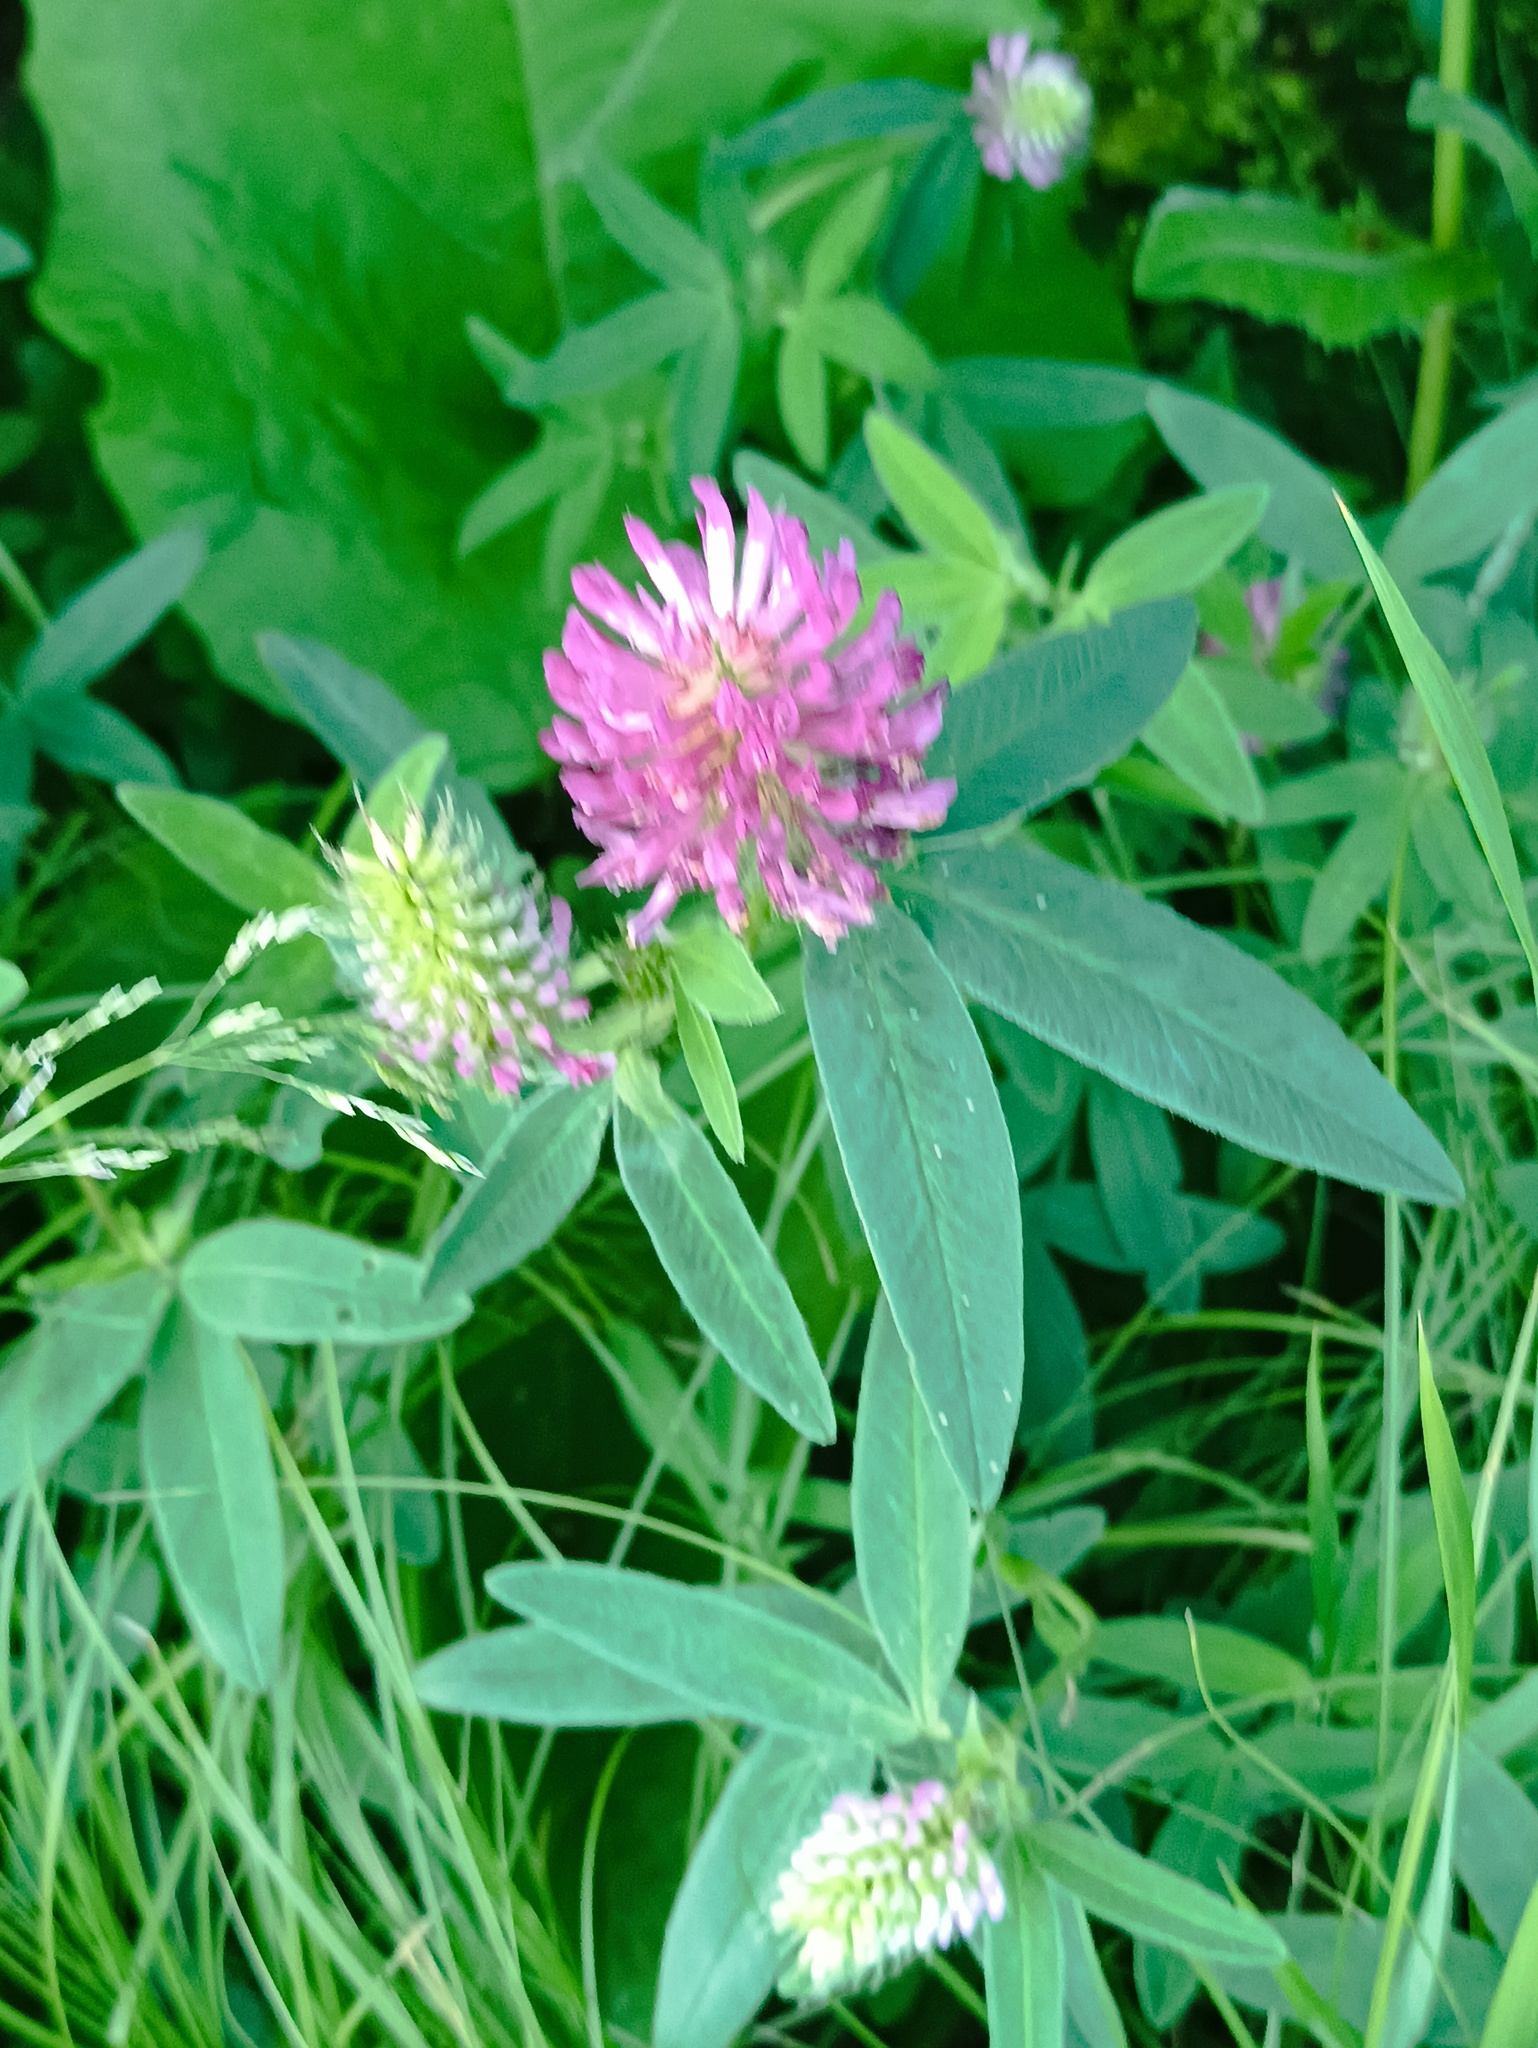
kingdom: Plantae
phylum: Tracheophyta
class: Magnoliopsida
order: Fabales
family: Fabaceae
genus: Trifolium
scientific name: Trifolium medium
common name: Zigzag clover
